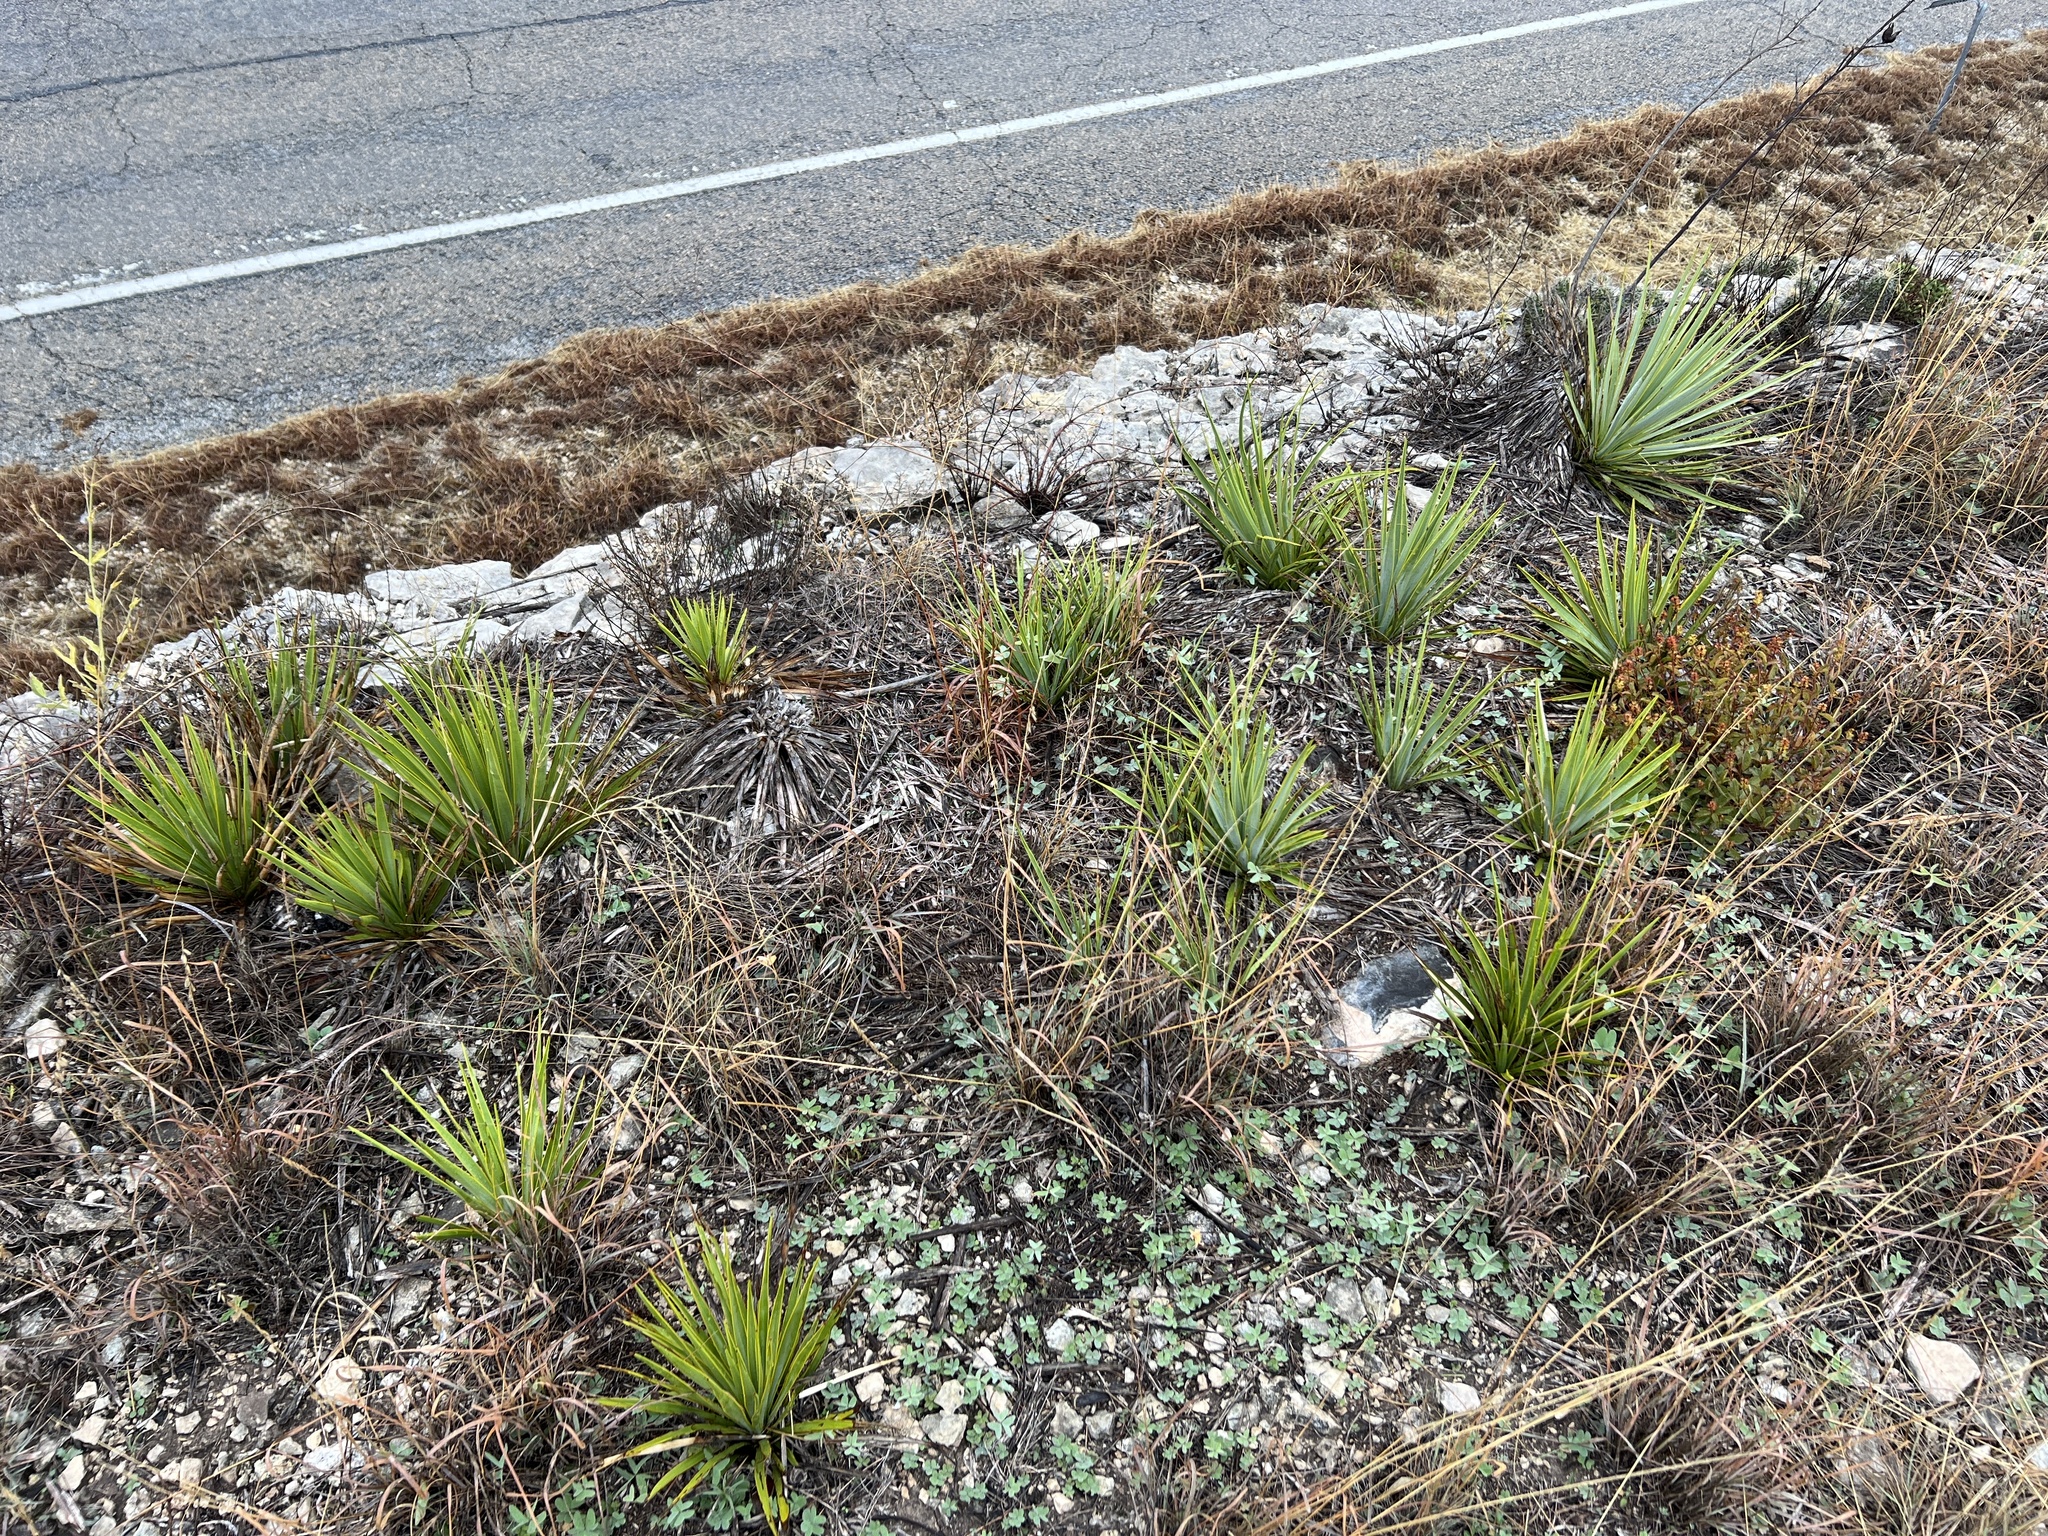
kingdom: Plantae
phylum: Tracheophyta
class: Liliopsida
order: Asparagales
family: Asparagaceae
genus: Yucca
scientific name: Yucca reverchonii
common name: San angelo yucca
